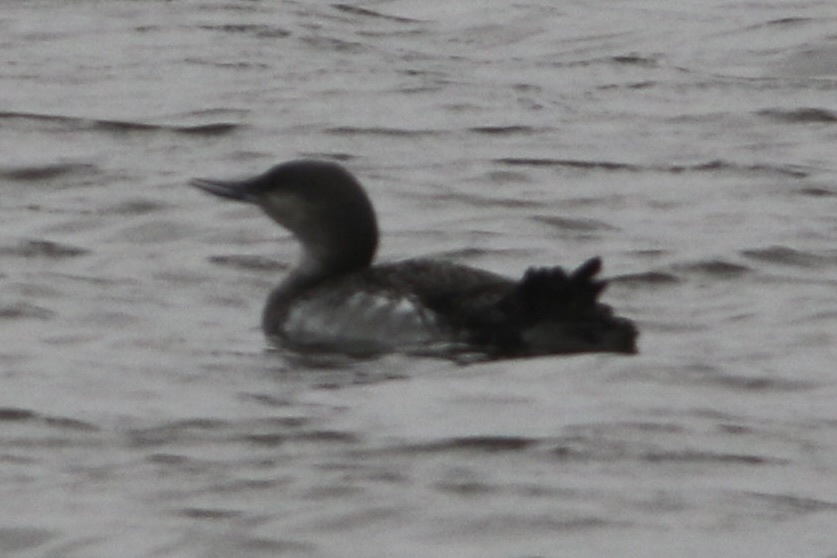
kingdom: Animalia
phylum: Chordata
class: Aves
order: Gaviiformes
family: Gaviidae
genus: Gavia
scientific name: Gavia stellata
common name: Red-throated loon
